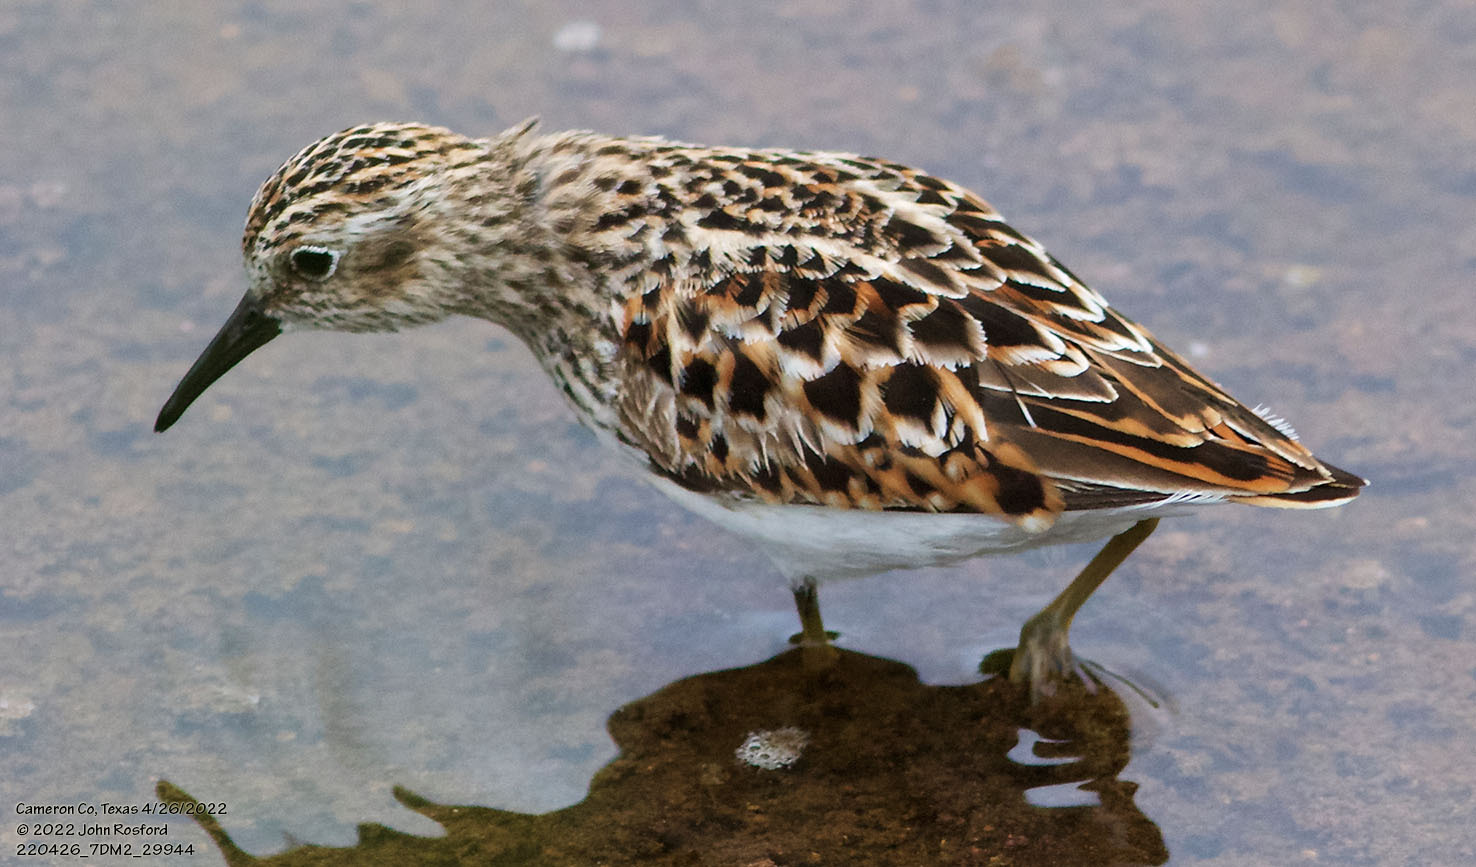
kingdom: Animalia
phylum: Chordata
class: Aves
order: Charadriiformes
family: Scolopacidae
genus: Calidris
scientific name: Calidris minutilla
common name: Least sandpiper
